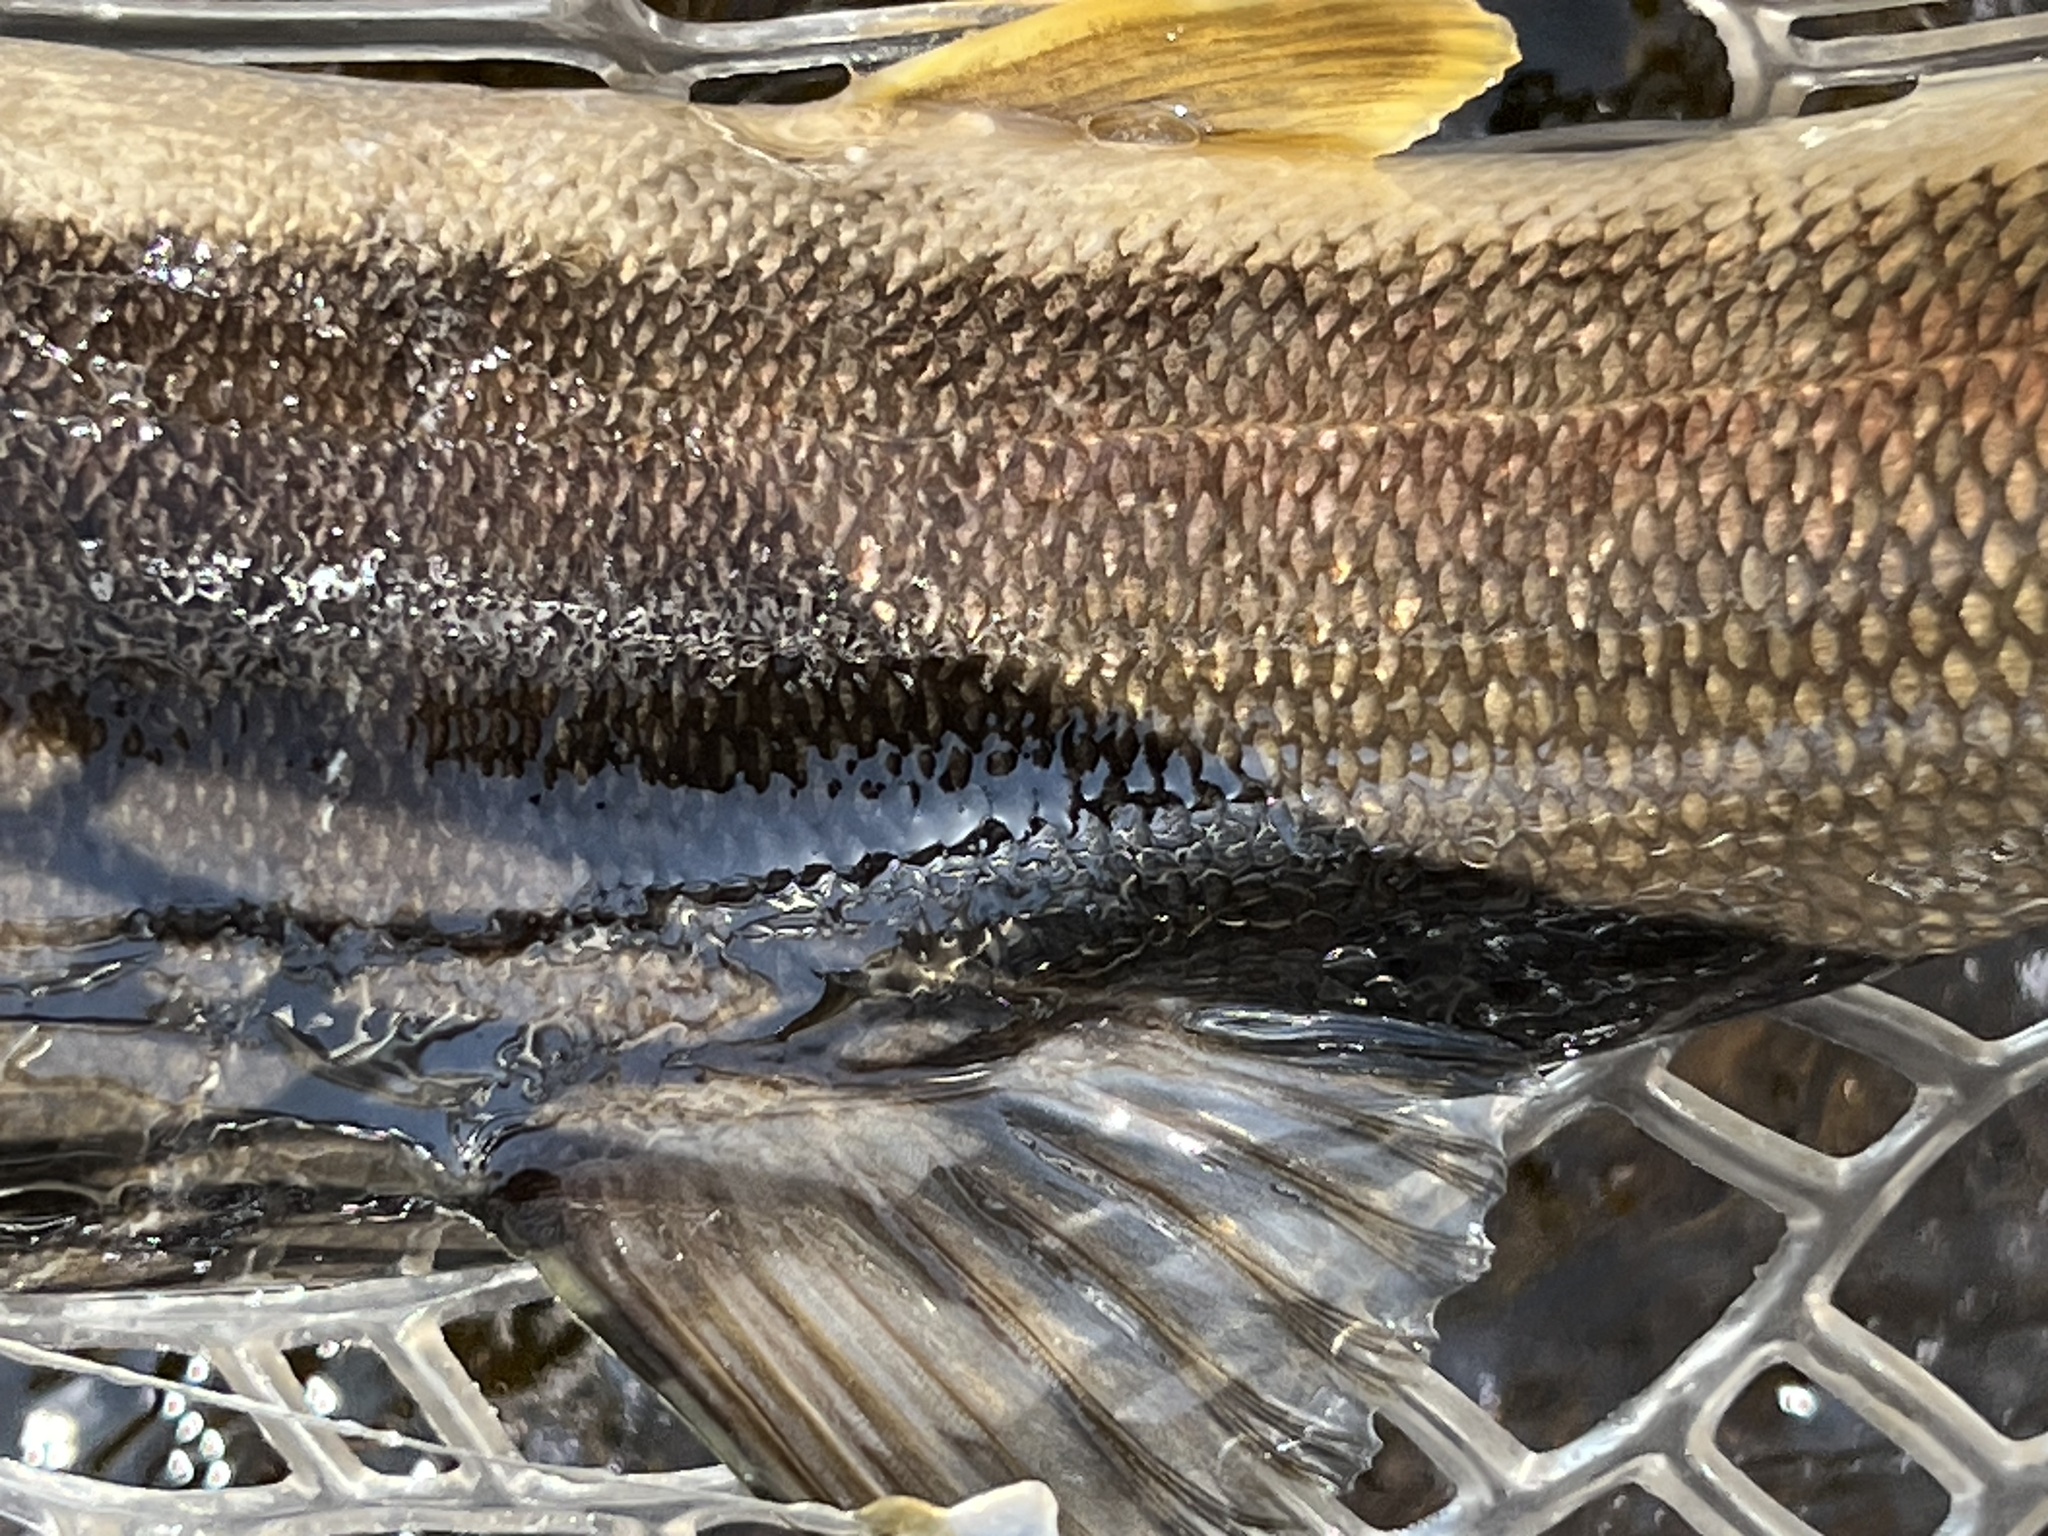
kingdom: Animalia
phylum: Chordata
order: Cypriniformes
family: Catostomidae
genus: Catostomus
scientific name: Catostomus catostomus
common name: Longnose sucker
